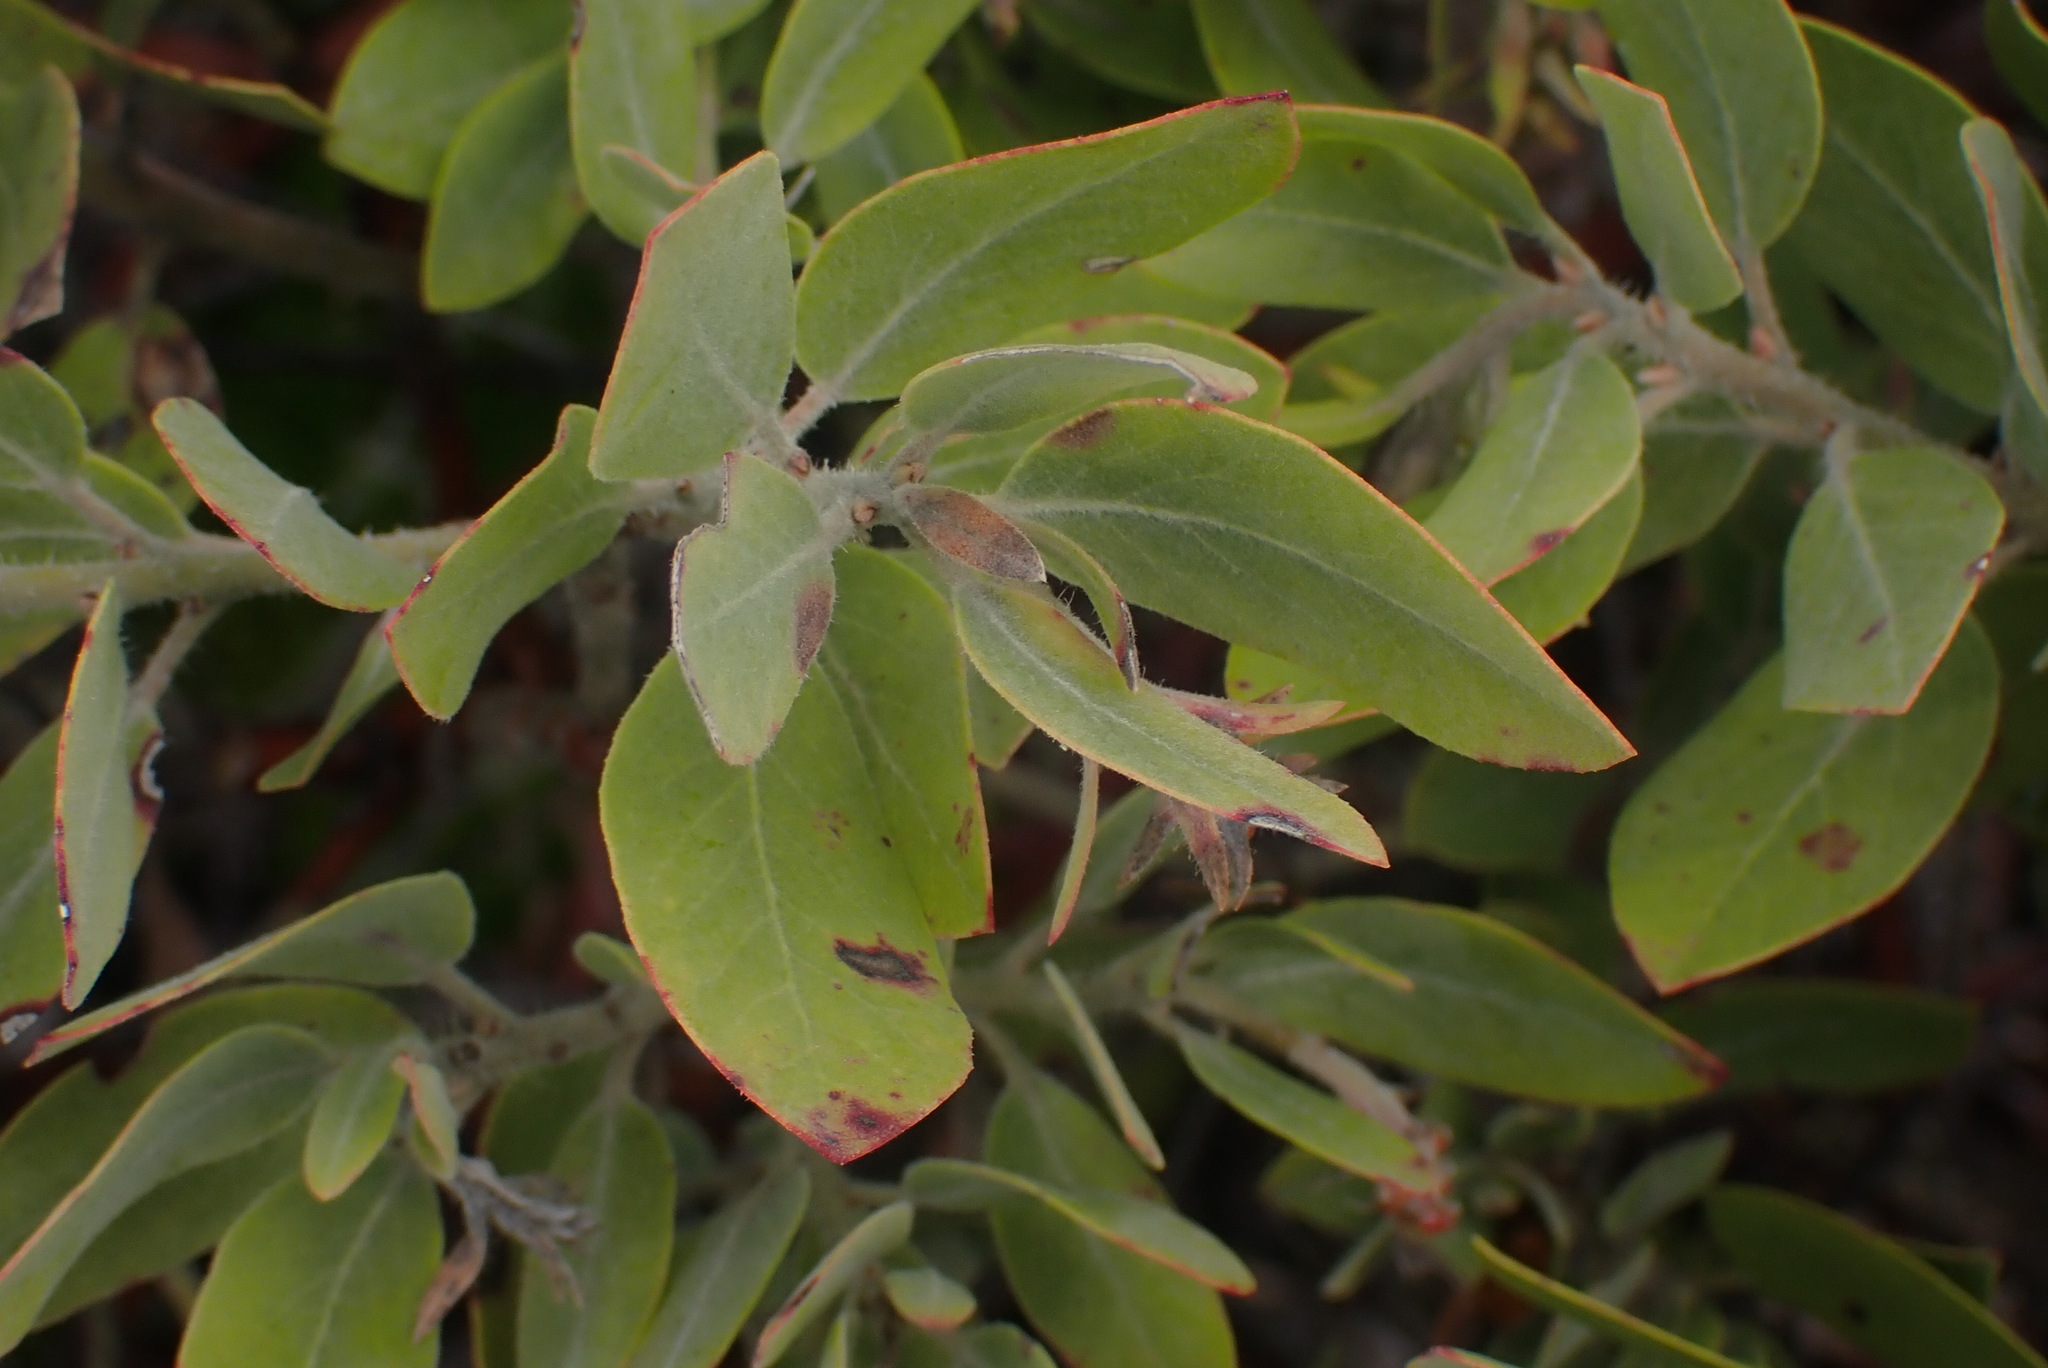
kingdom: Plantae
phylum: Tracheophyta
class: Magnoliopsida
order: Ericales
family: Ericaceae
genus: Arctostaphylos
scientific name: Arctostaphylos columbiana
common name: Bristly bearberry
